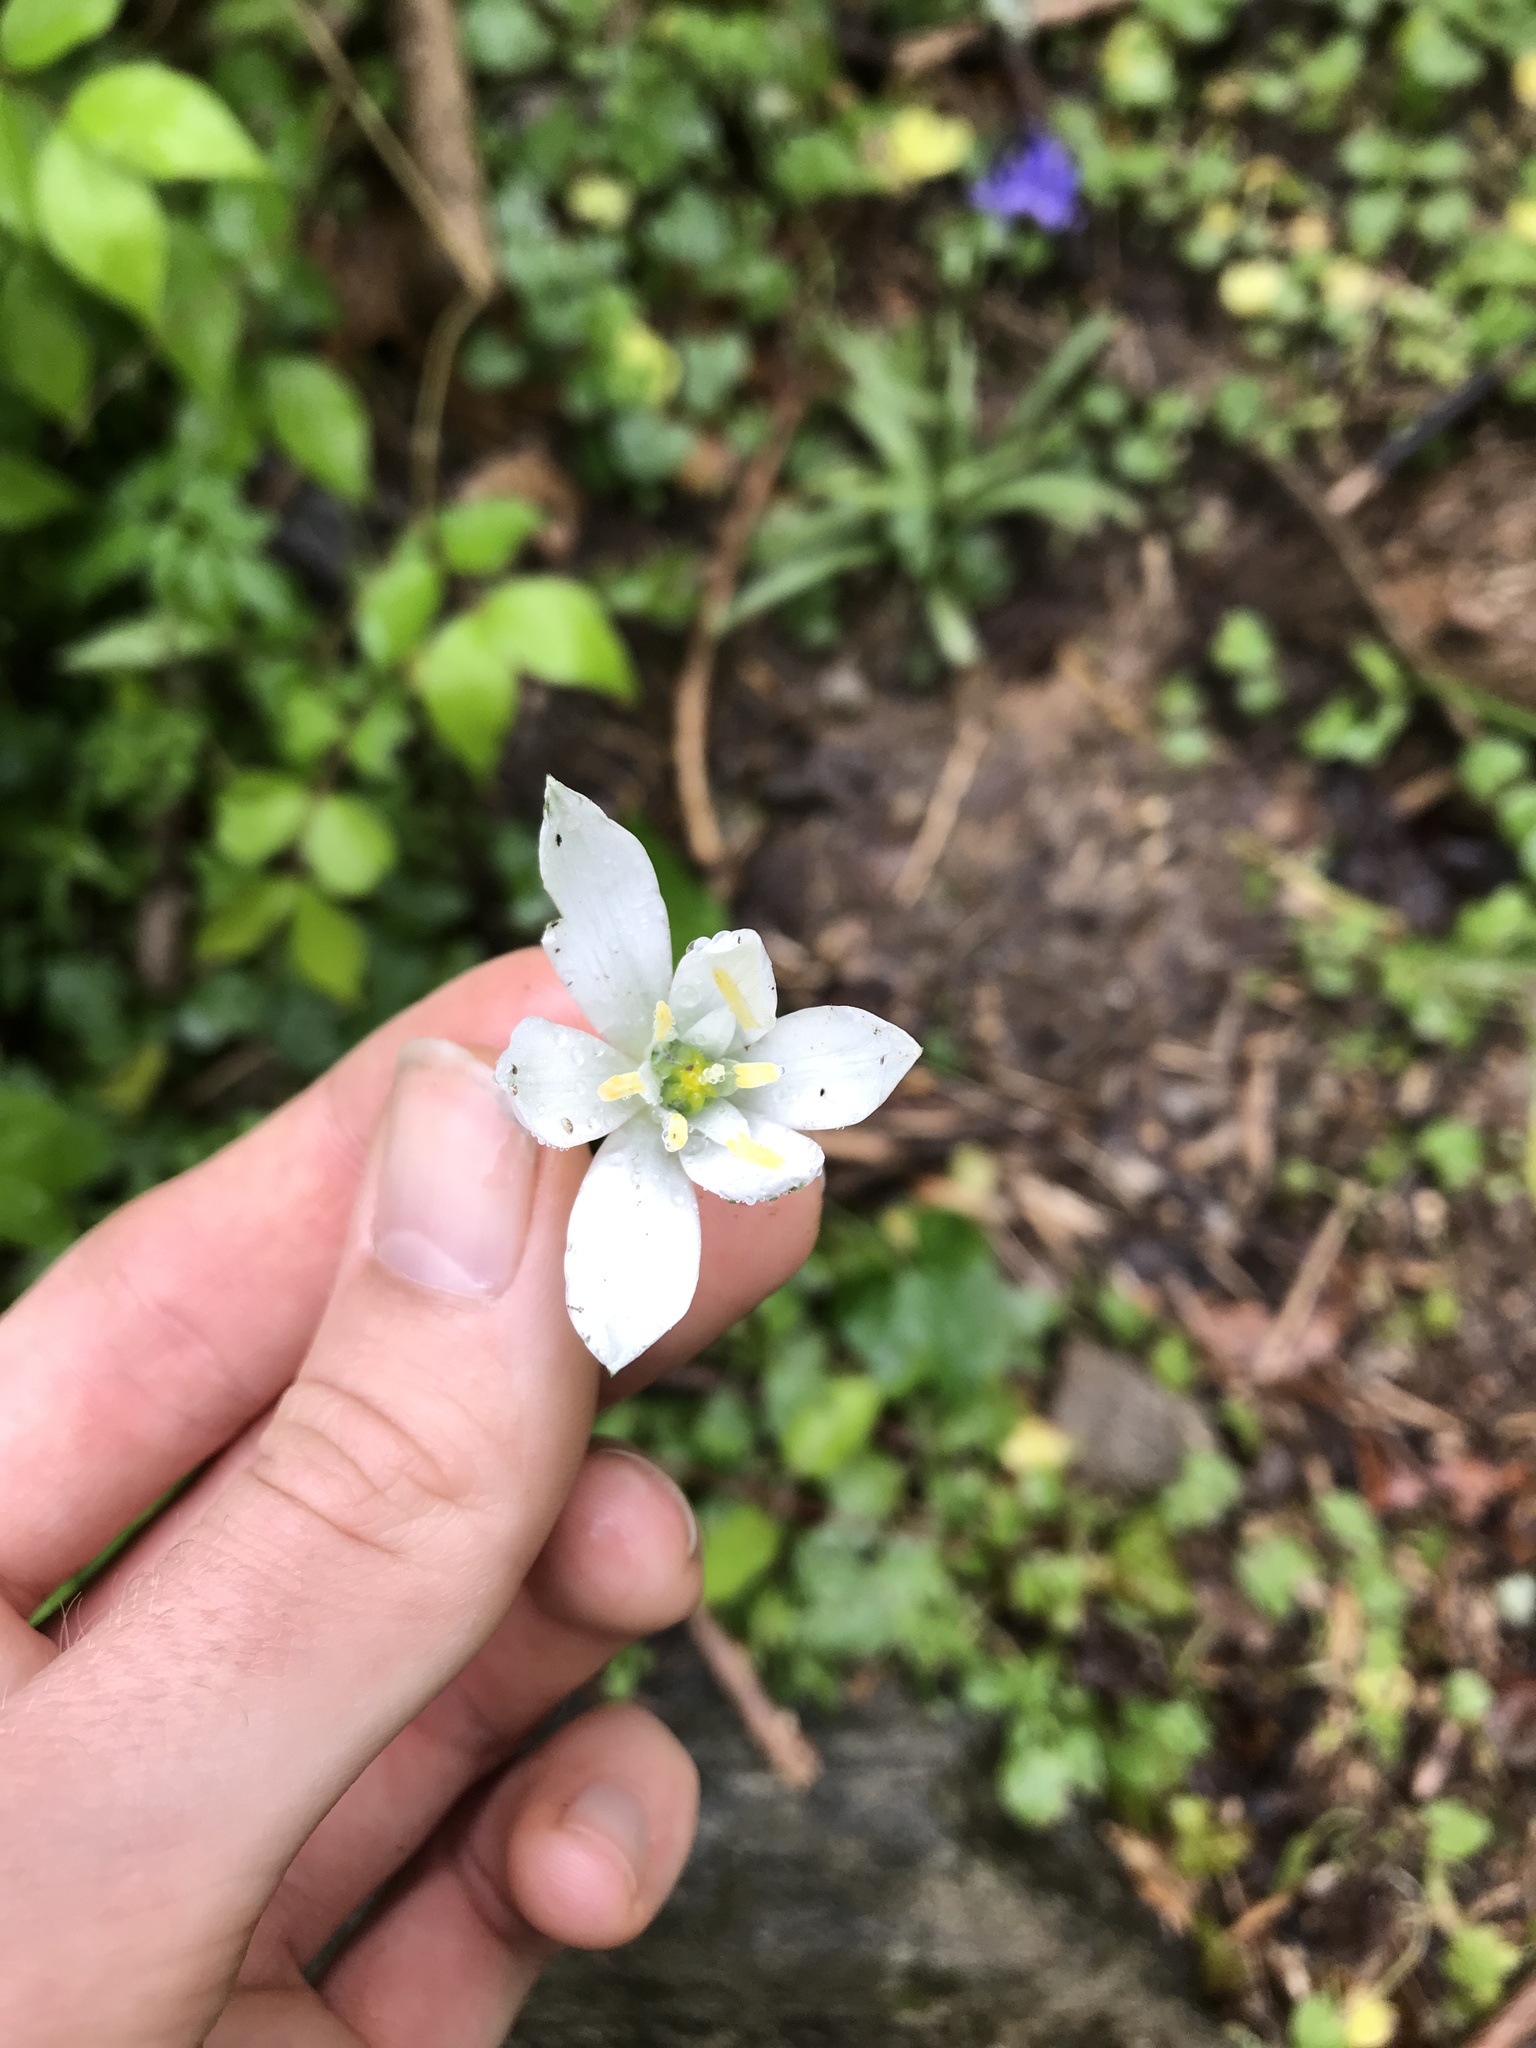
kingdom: Plantae
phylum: Tracheophyta
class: Liliopsida
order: Asparagales
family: Asparagaceae
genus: Ornithogalum
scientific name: Ornithogalum umbellatum
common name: Garden star-of-bethlehem
